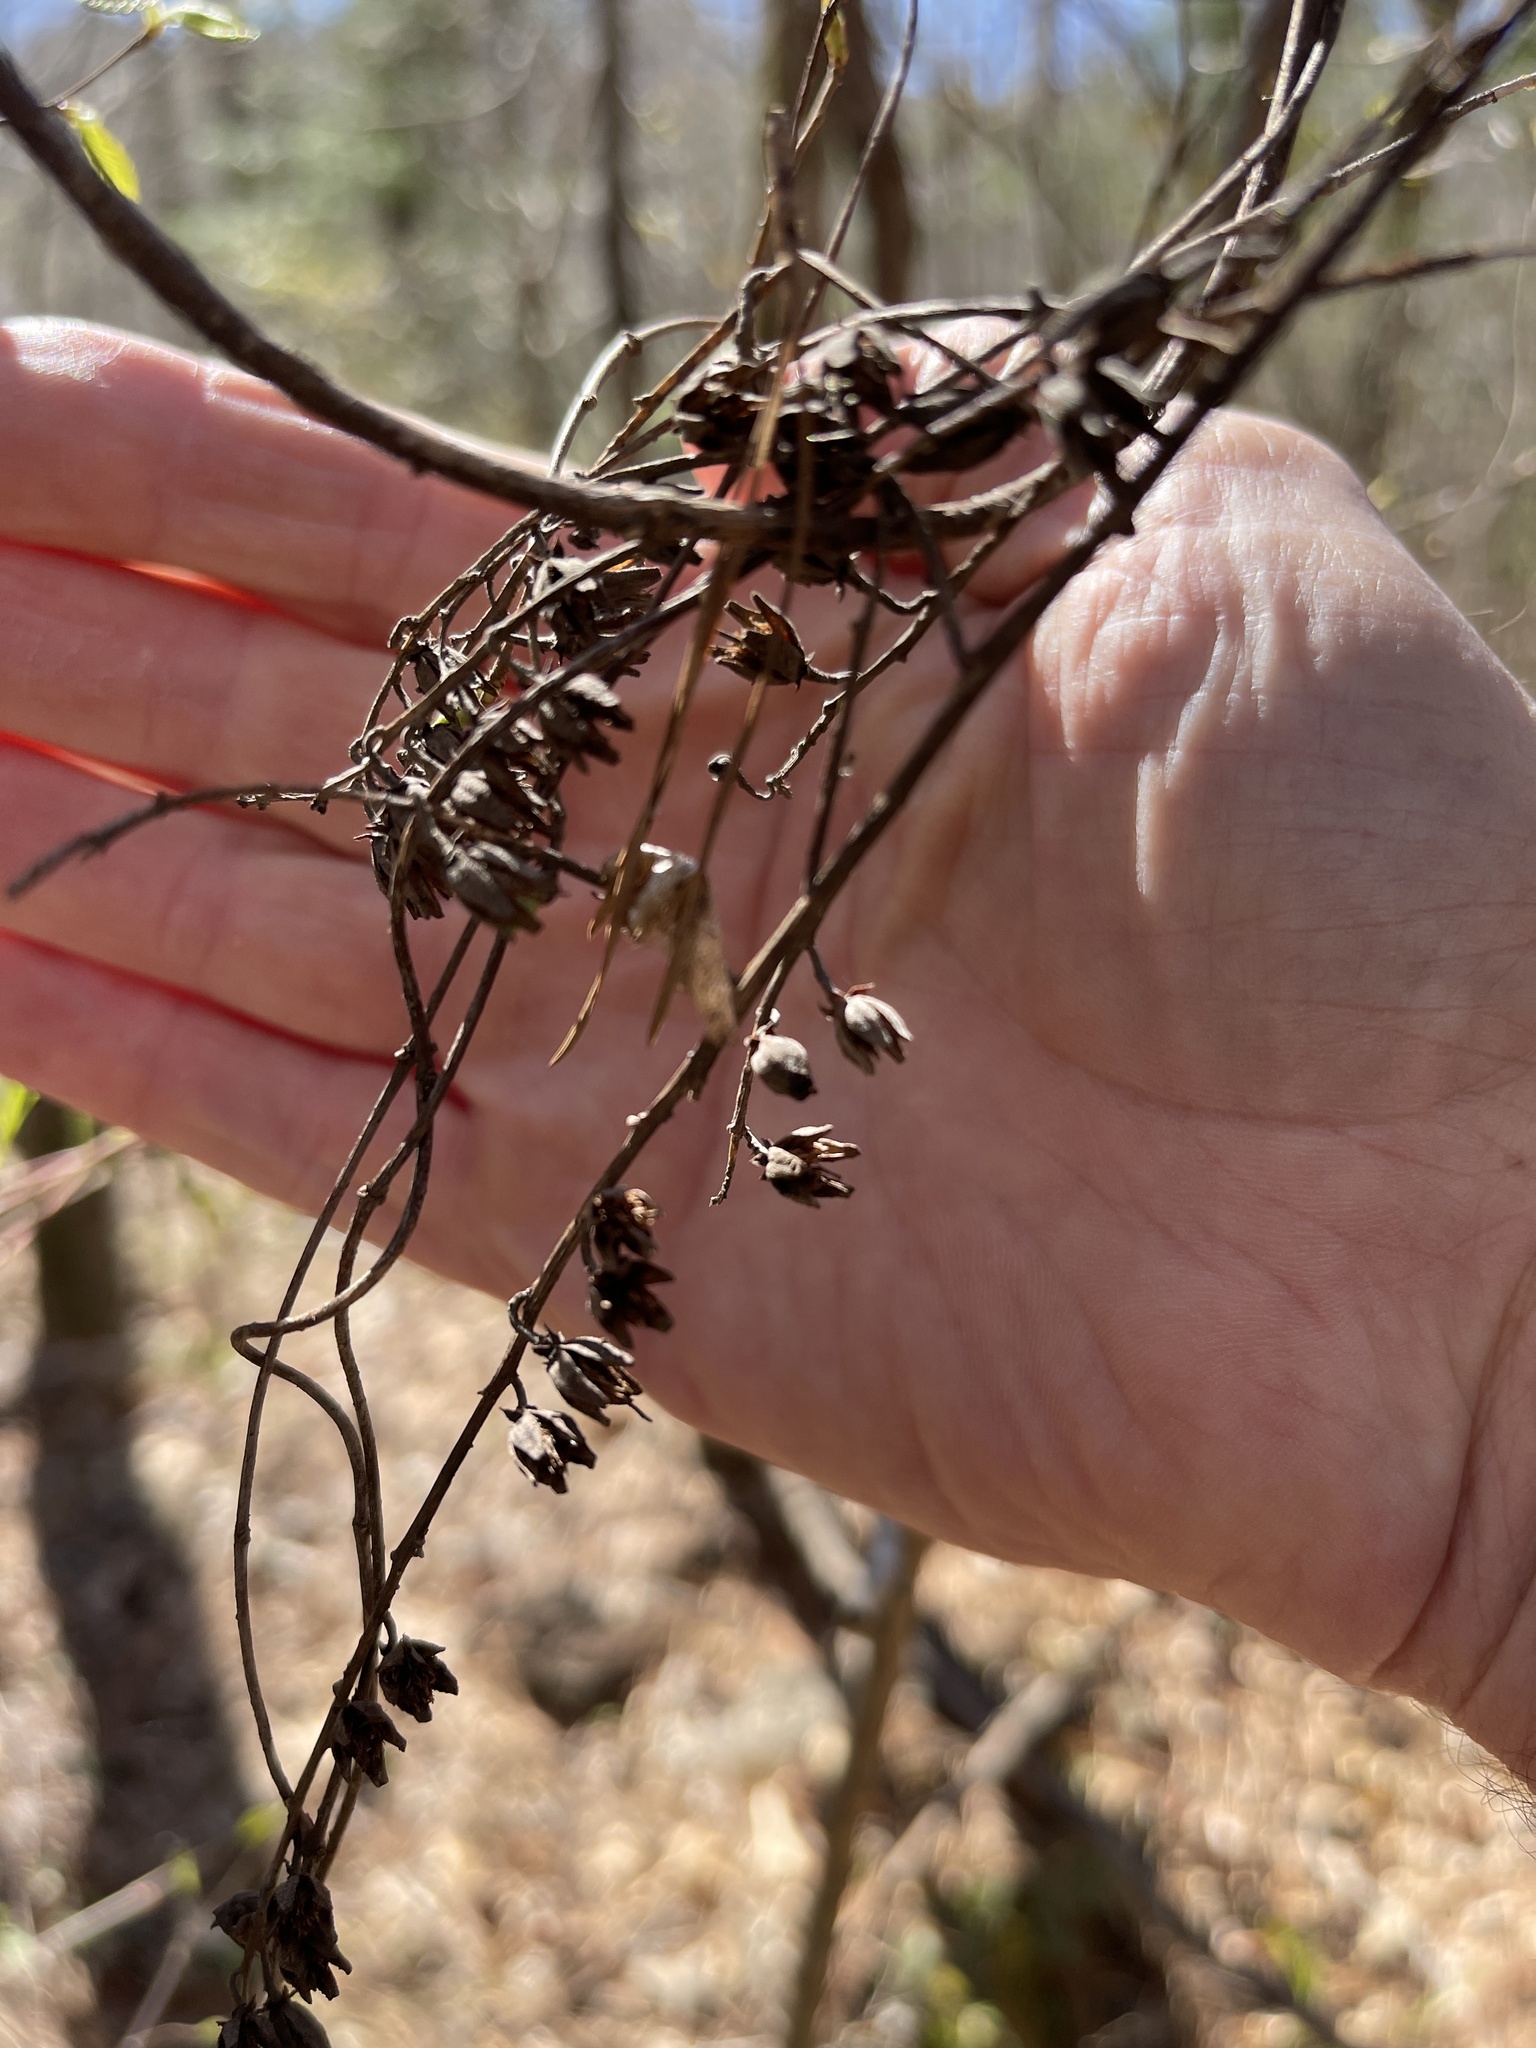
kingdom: Plantae
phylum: Tracheophyta
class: Magnoliopsida
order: Ericales
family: Ericaceae
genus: Oxydendrum
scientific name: Oxydendrum arboreum
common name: Sourwood
